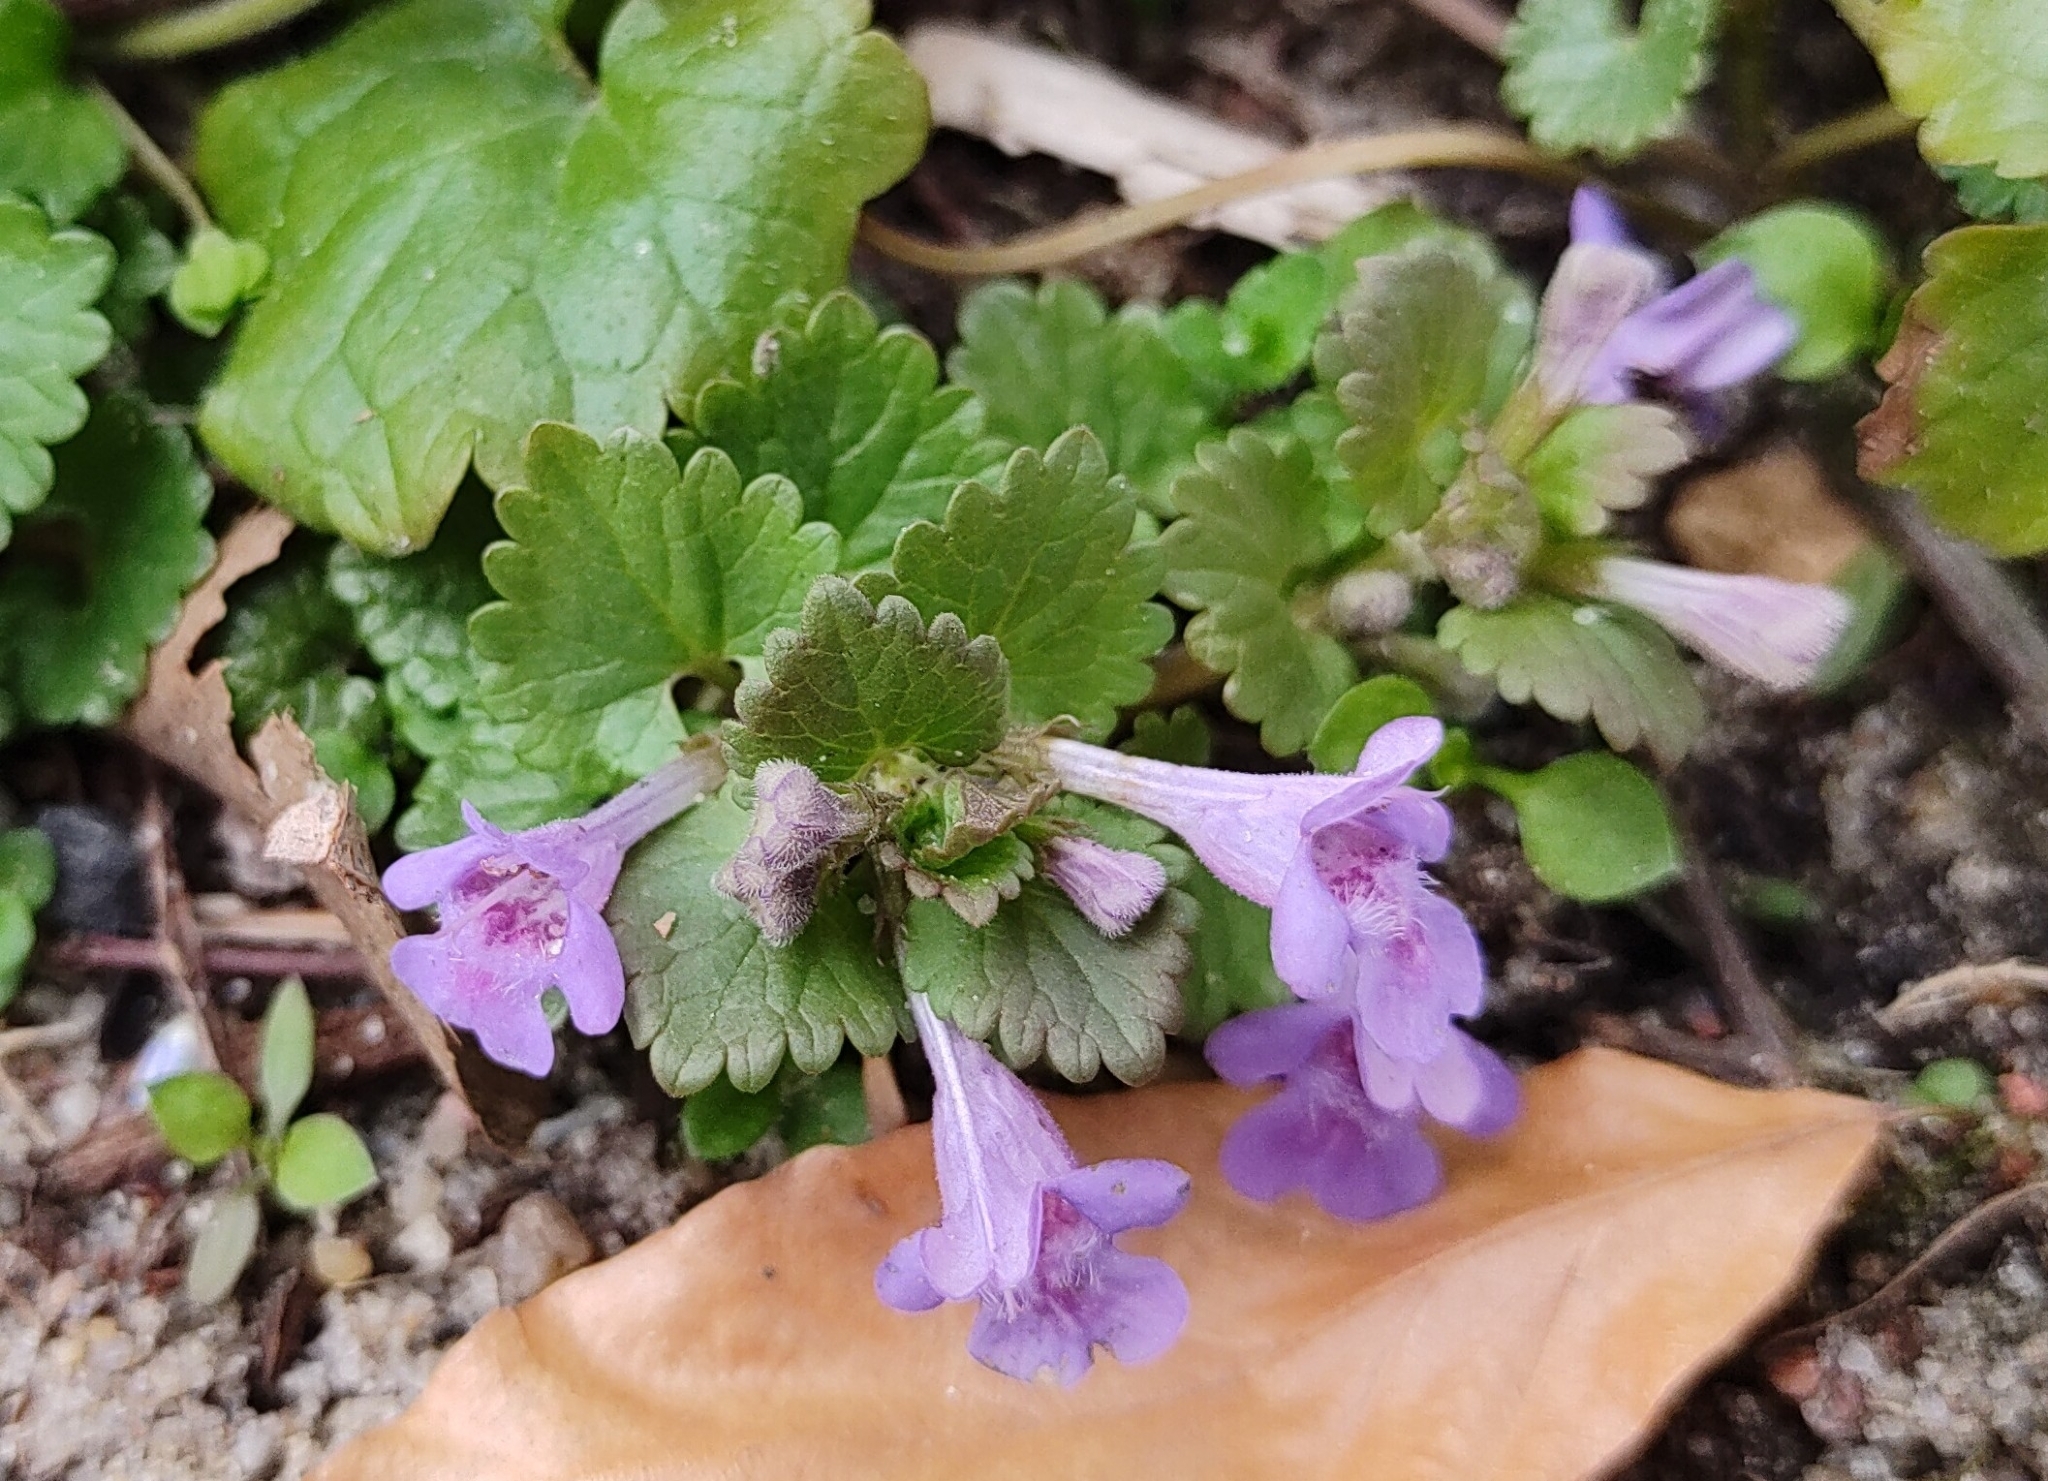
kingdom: Plantae
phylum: Tracheophyta
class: Magnoliopsida
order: Lamiales
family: Lamiaceae
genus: Glechoma
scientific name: Glechoma hederacea
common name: Ground ivy
